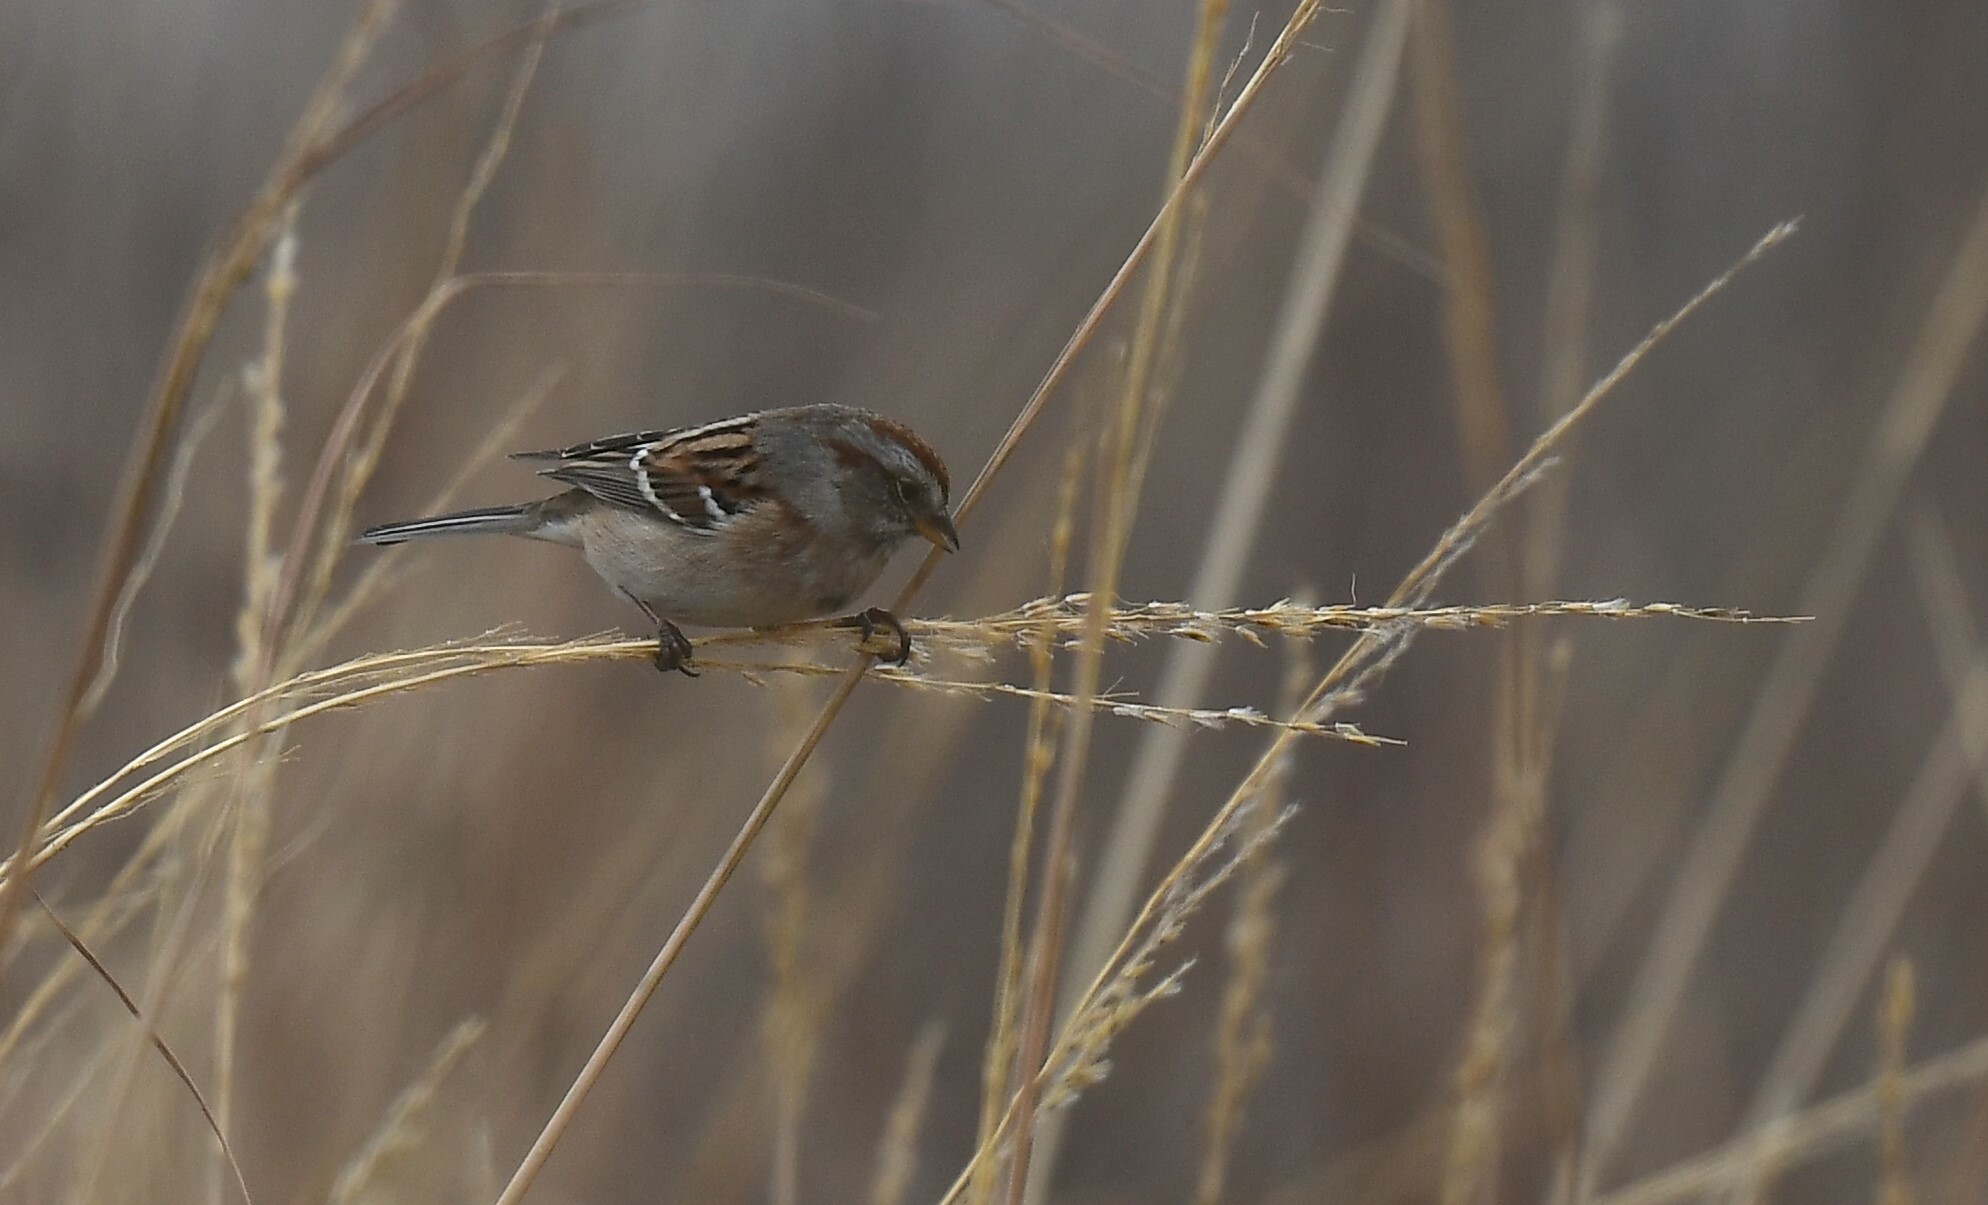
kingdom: Animalia
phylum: Chordata
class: Aves
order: Passeriformes
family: Passerellidae
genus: Spizelloides
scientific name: Spizelloides arborea
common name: American tree sparrow
